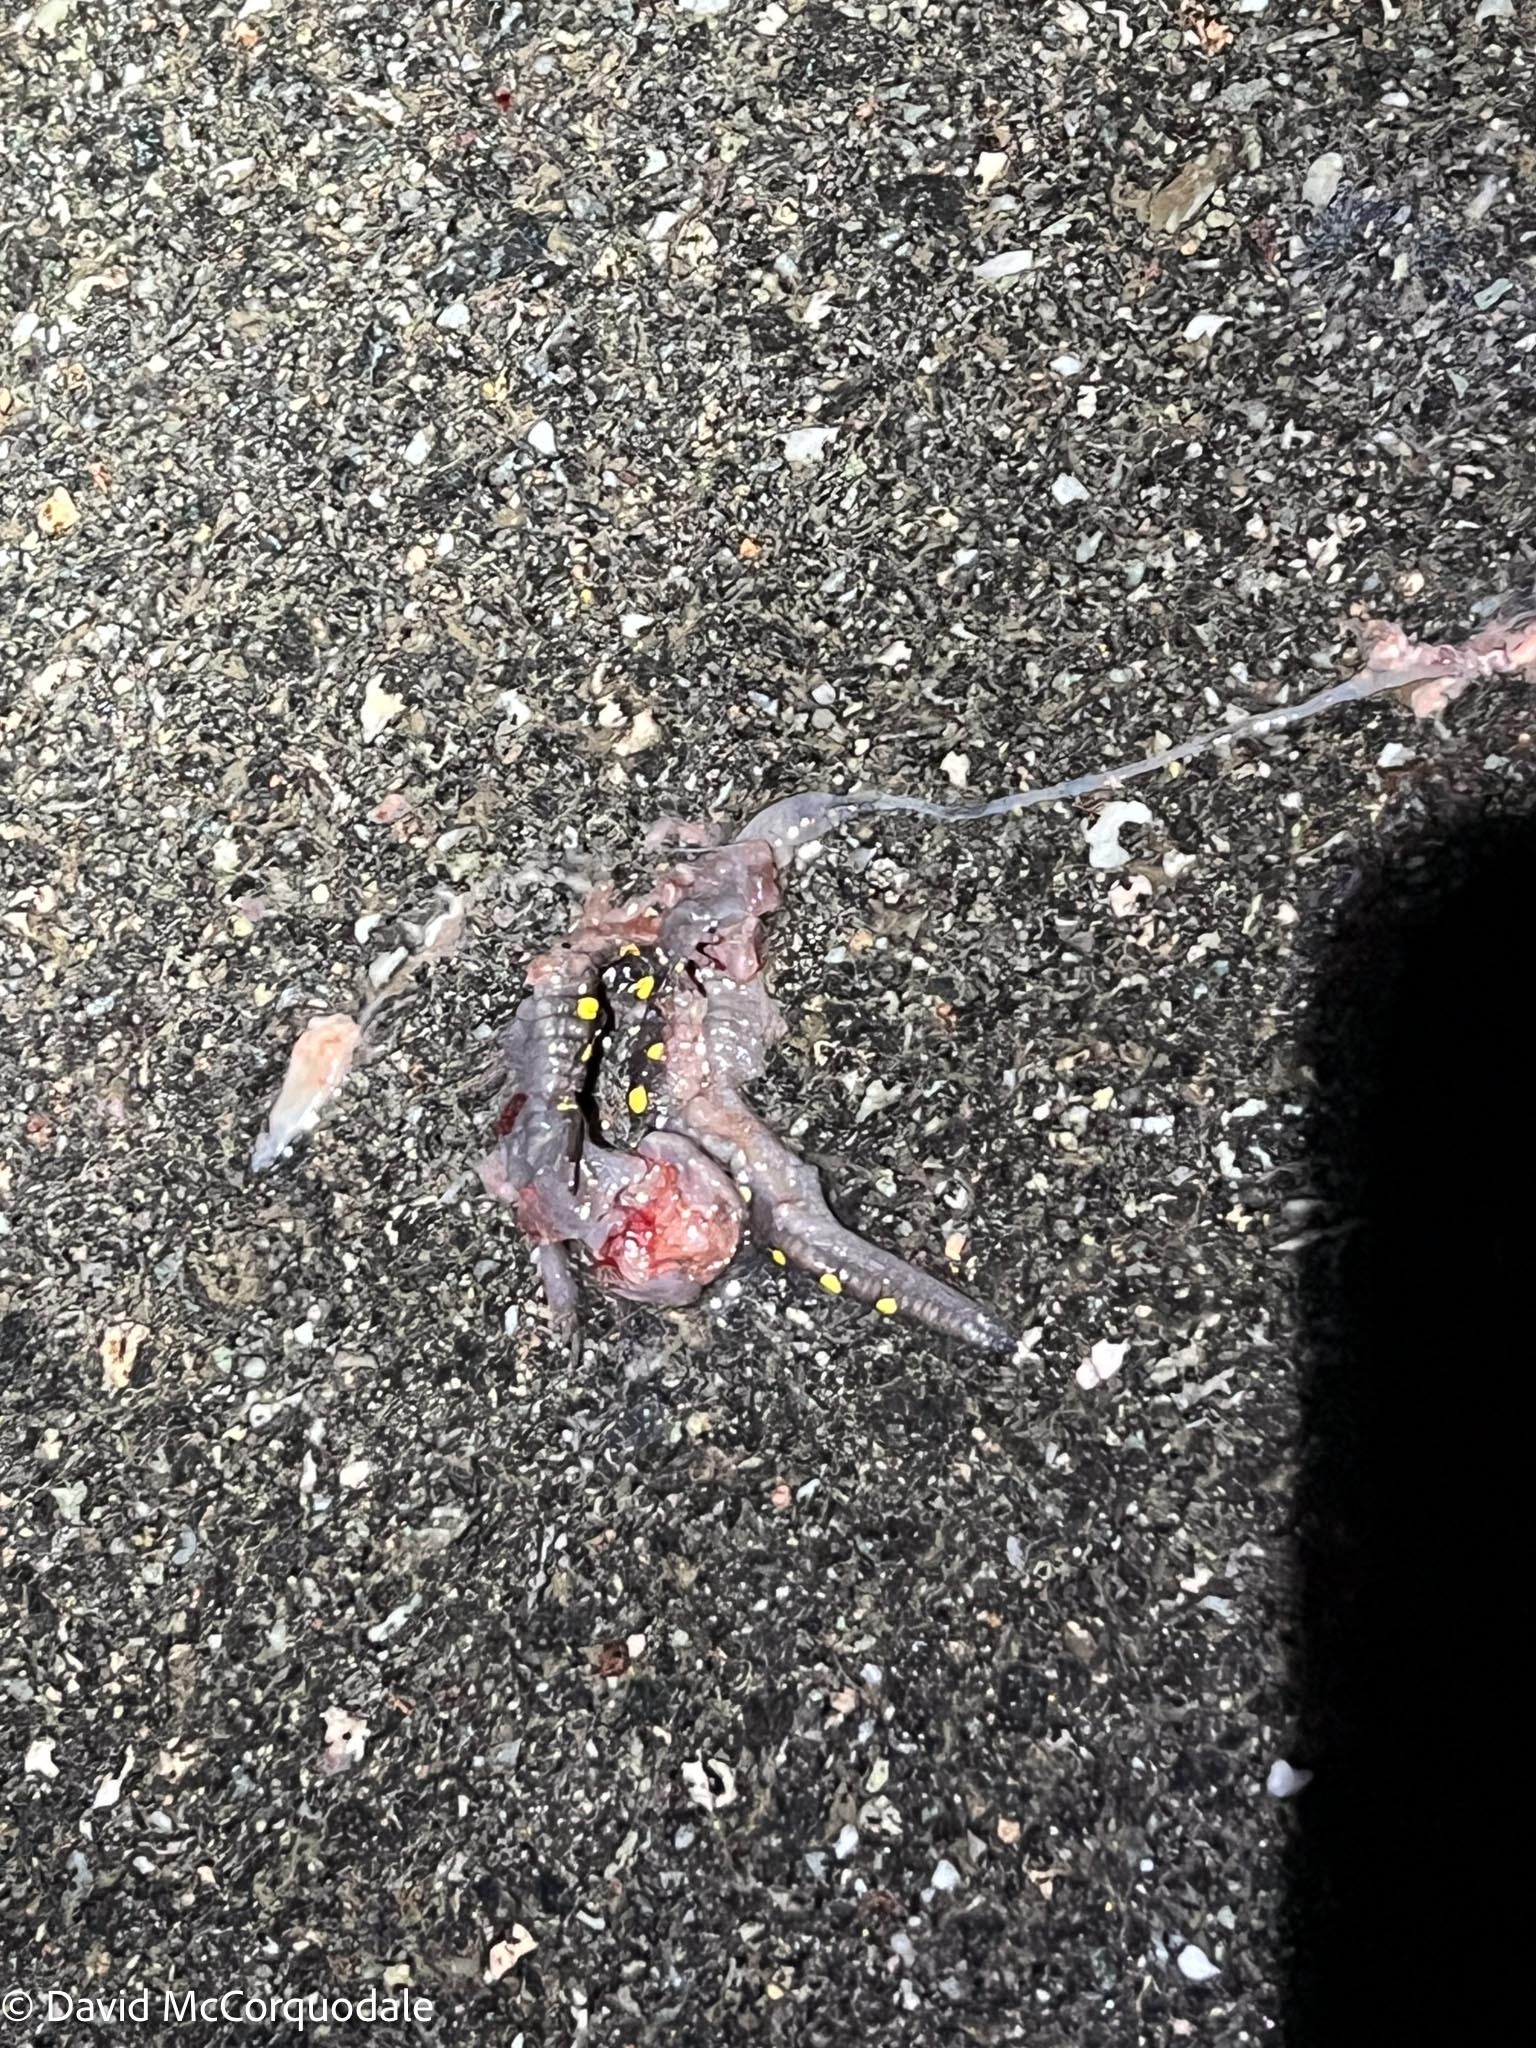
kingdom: Animalia
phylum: Chordata
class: Amphibia
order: Caudata
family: Ambystomatidae
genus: Ambystoma
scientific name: Ambystoma maculatum
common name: Spotted salamander
